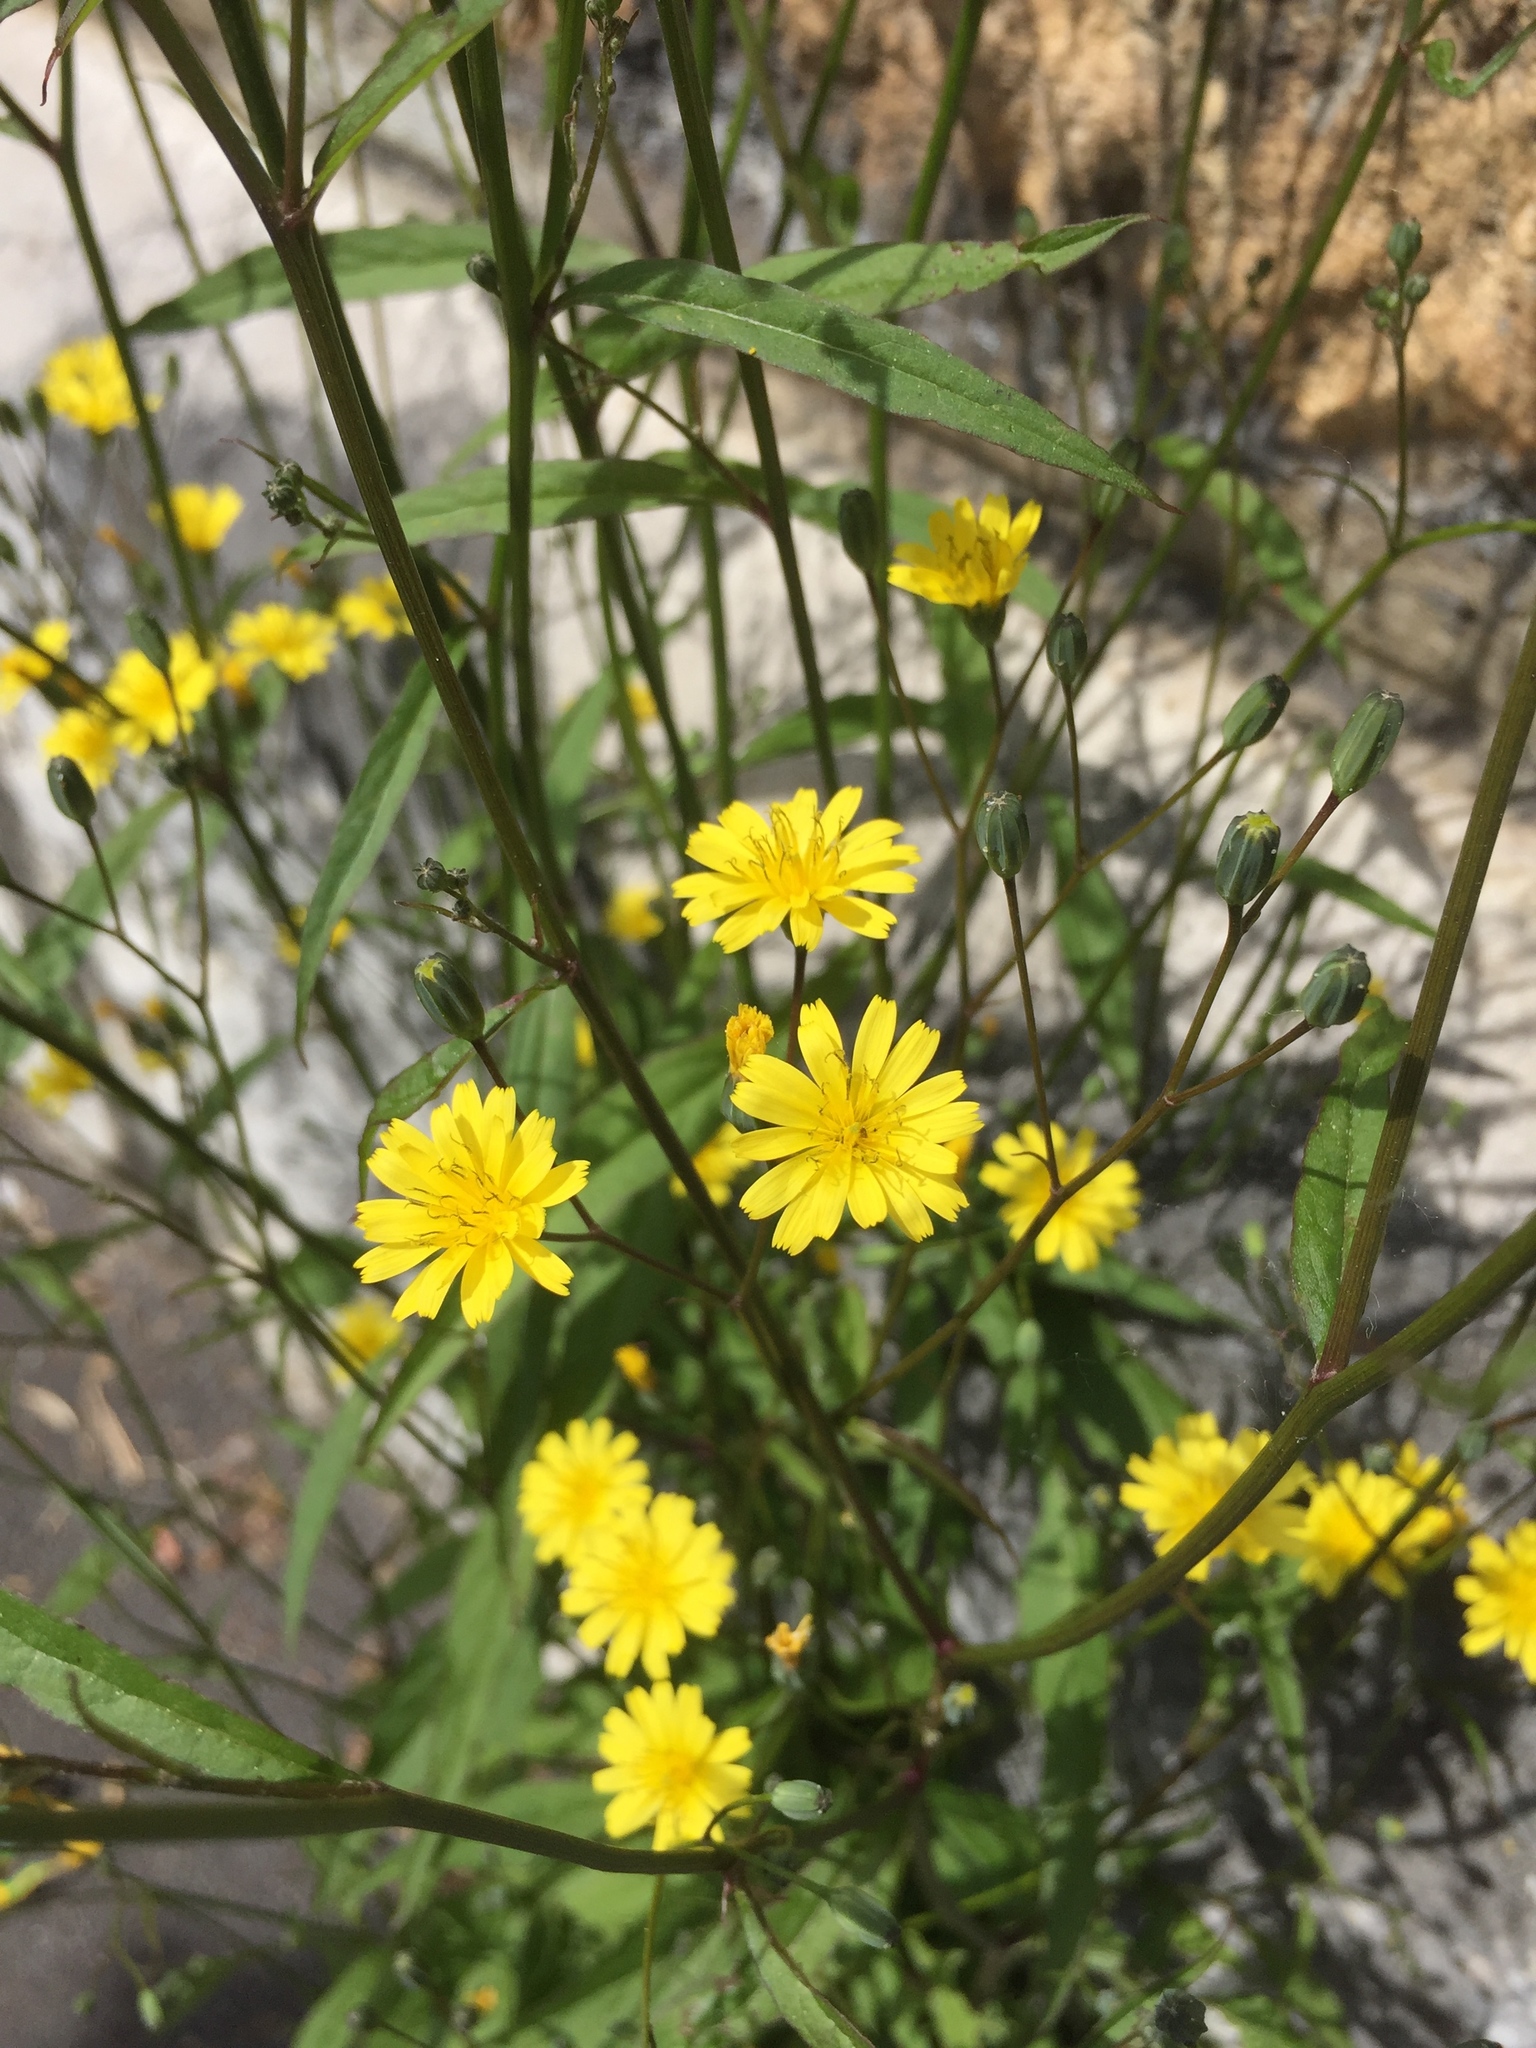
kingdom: Plantae
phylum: Tracheophyta
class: Magnoliopsida
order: Asterales
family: Asteraceae
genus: Lapsana
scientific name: Lapsana communis
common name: Nipplewort
